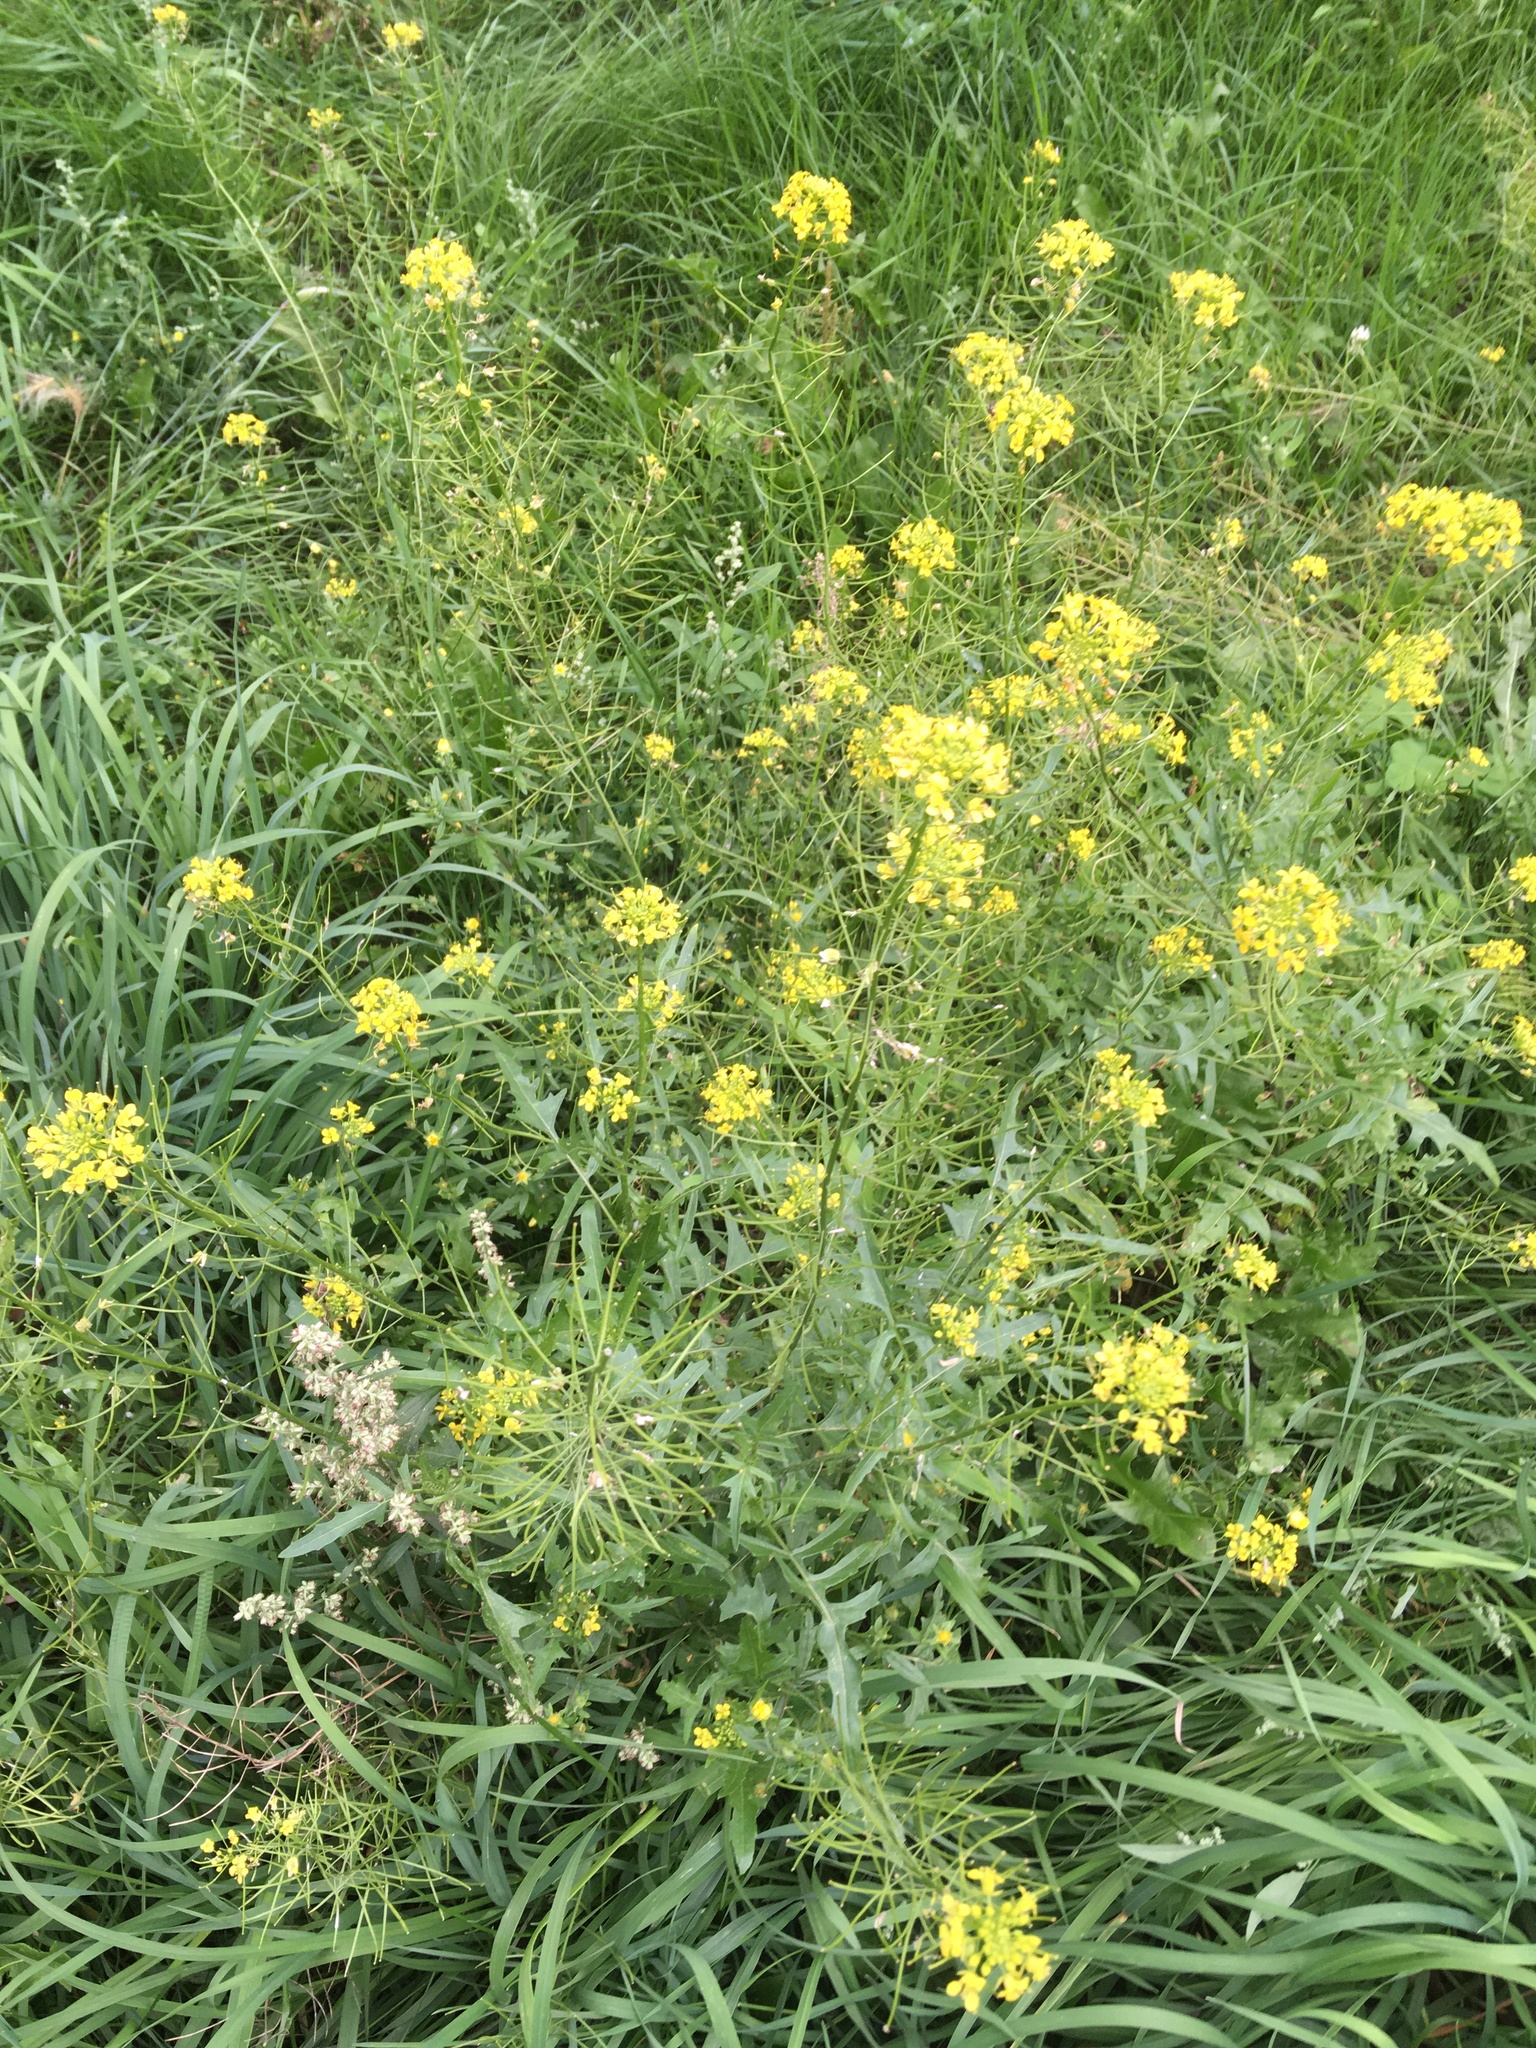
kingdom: Plantae
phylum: Tracheophyta
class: Magnoliopsida
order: Brassicales
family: Brassicaceae
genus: Sisymbrium
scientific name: Sisymbrium loeselii
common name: False london-rocket
